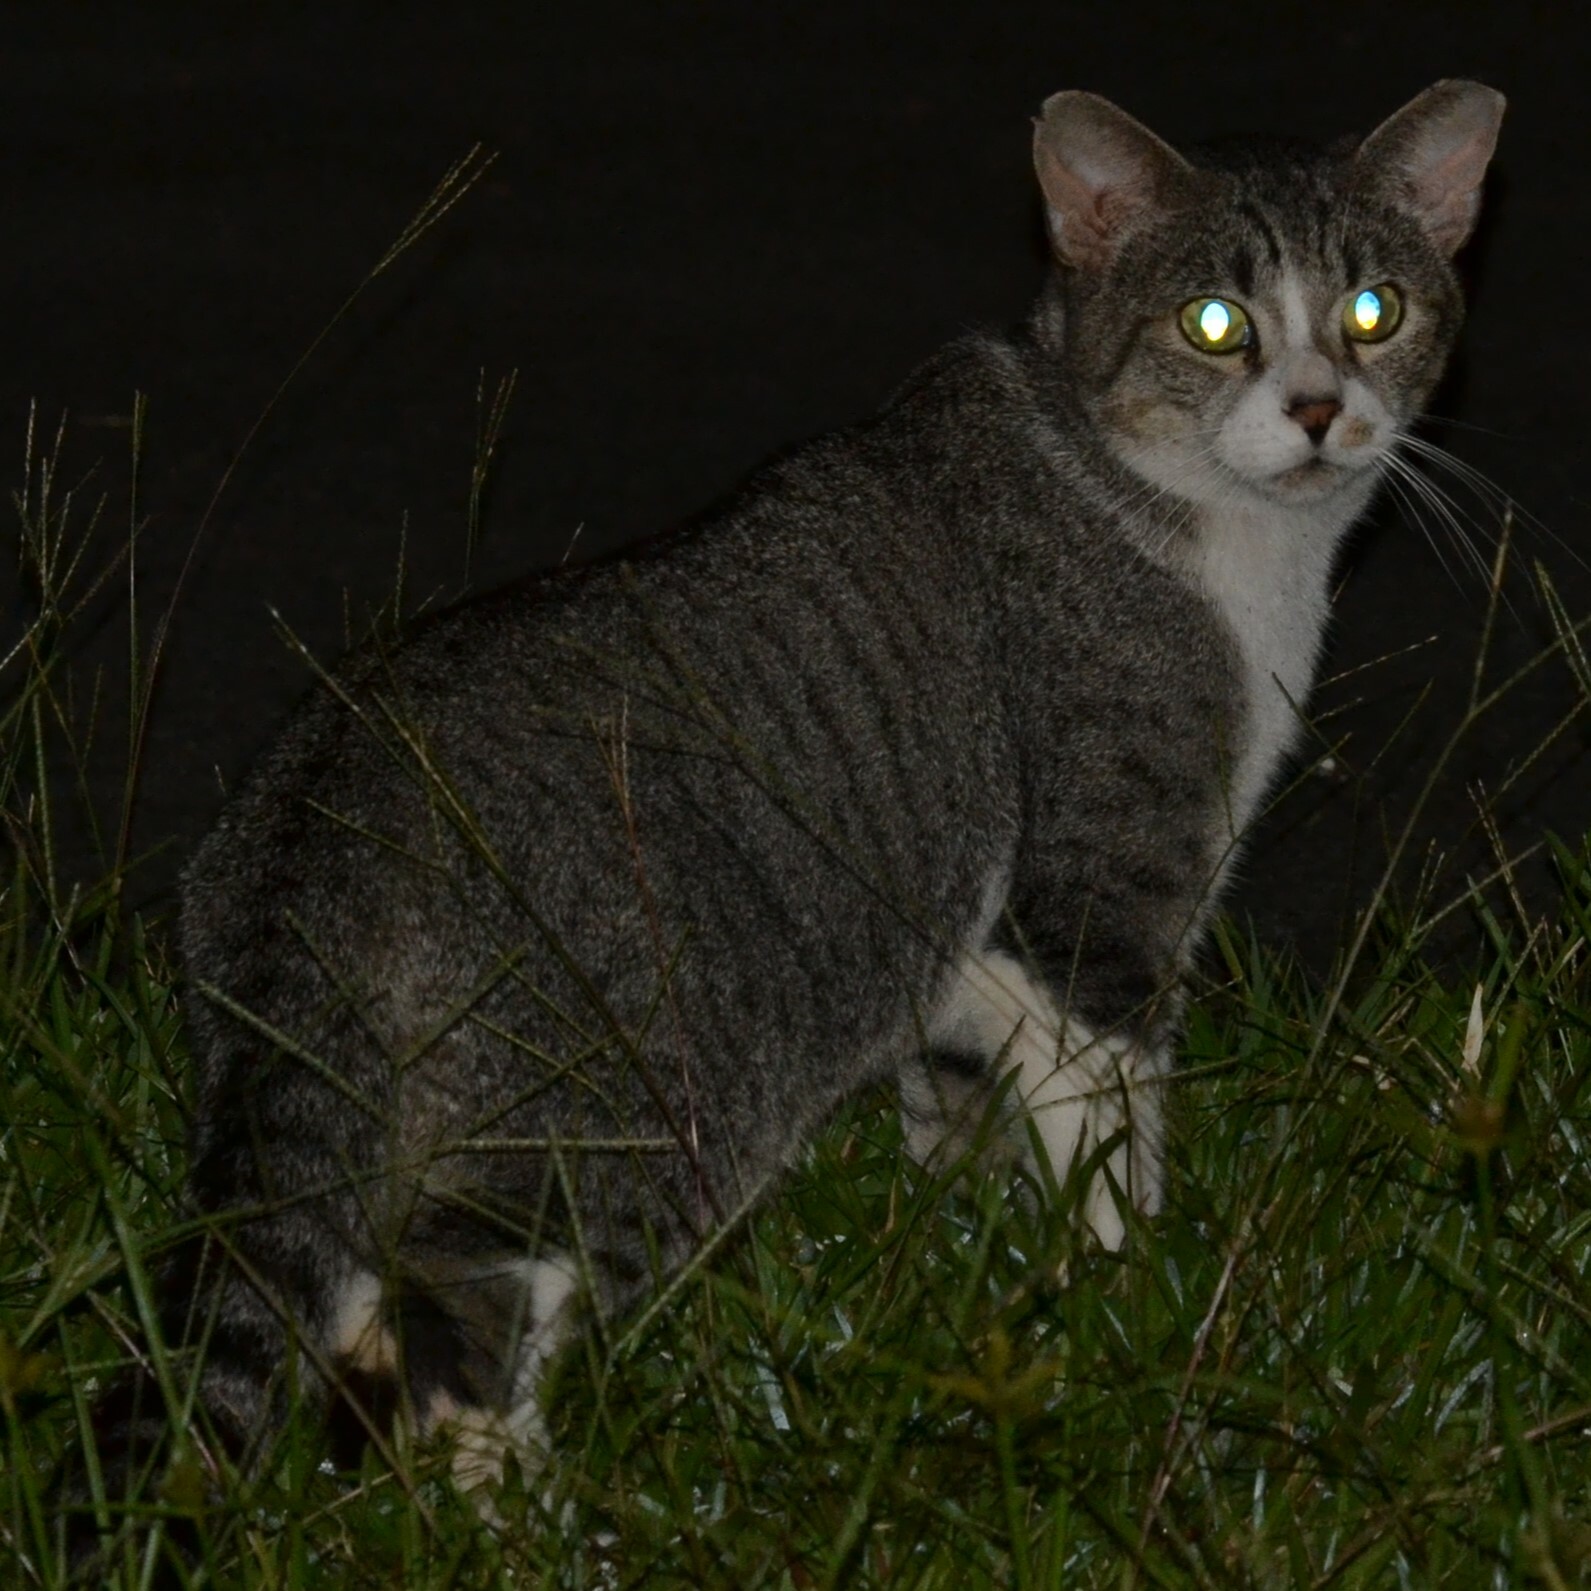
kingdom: Animalia
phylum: Chordata
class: Mammalia
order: Carnivora
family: Felidae
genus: Felis
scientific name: Felis catus
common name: Domestic cat
